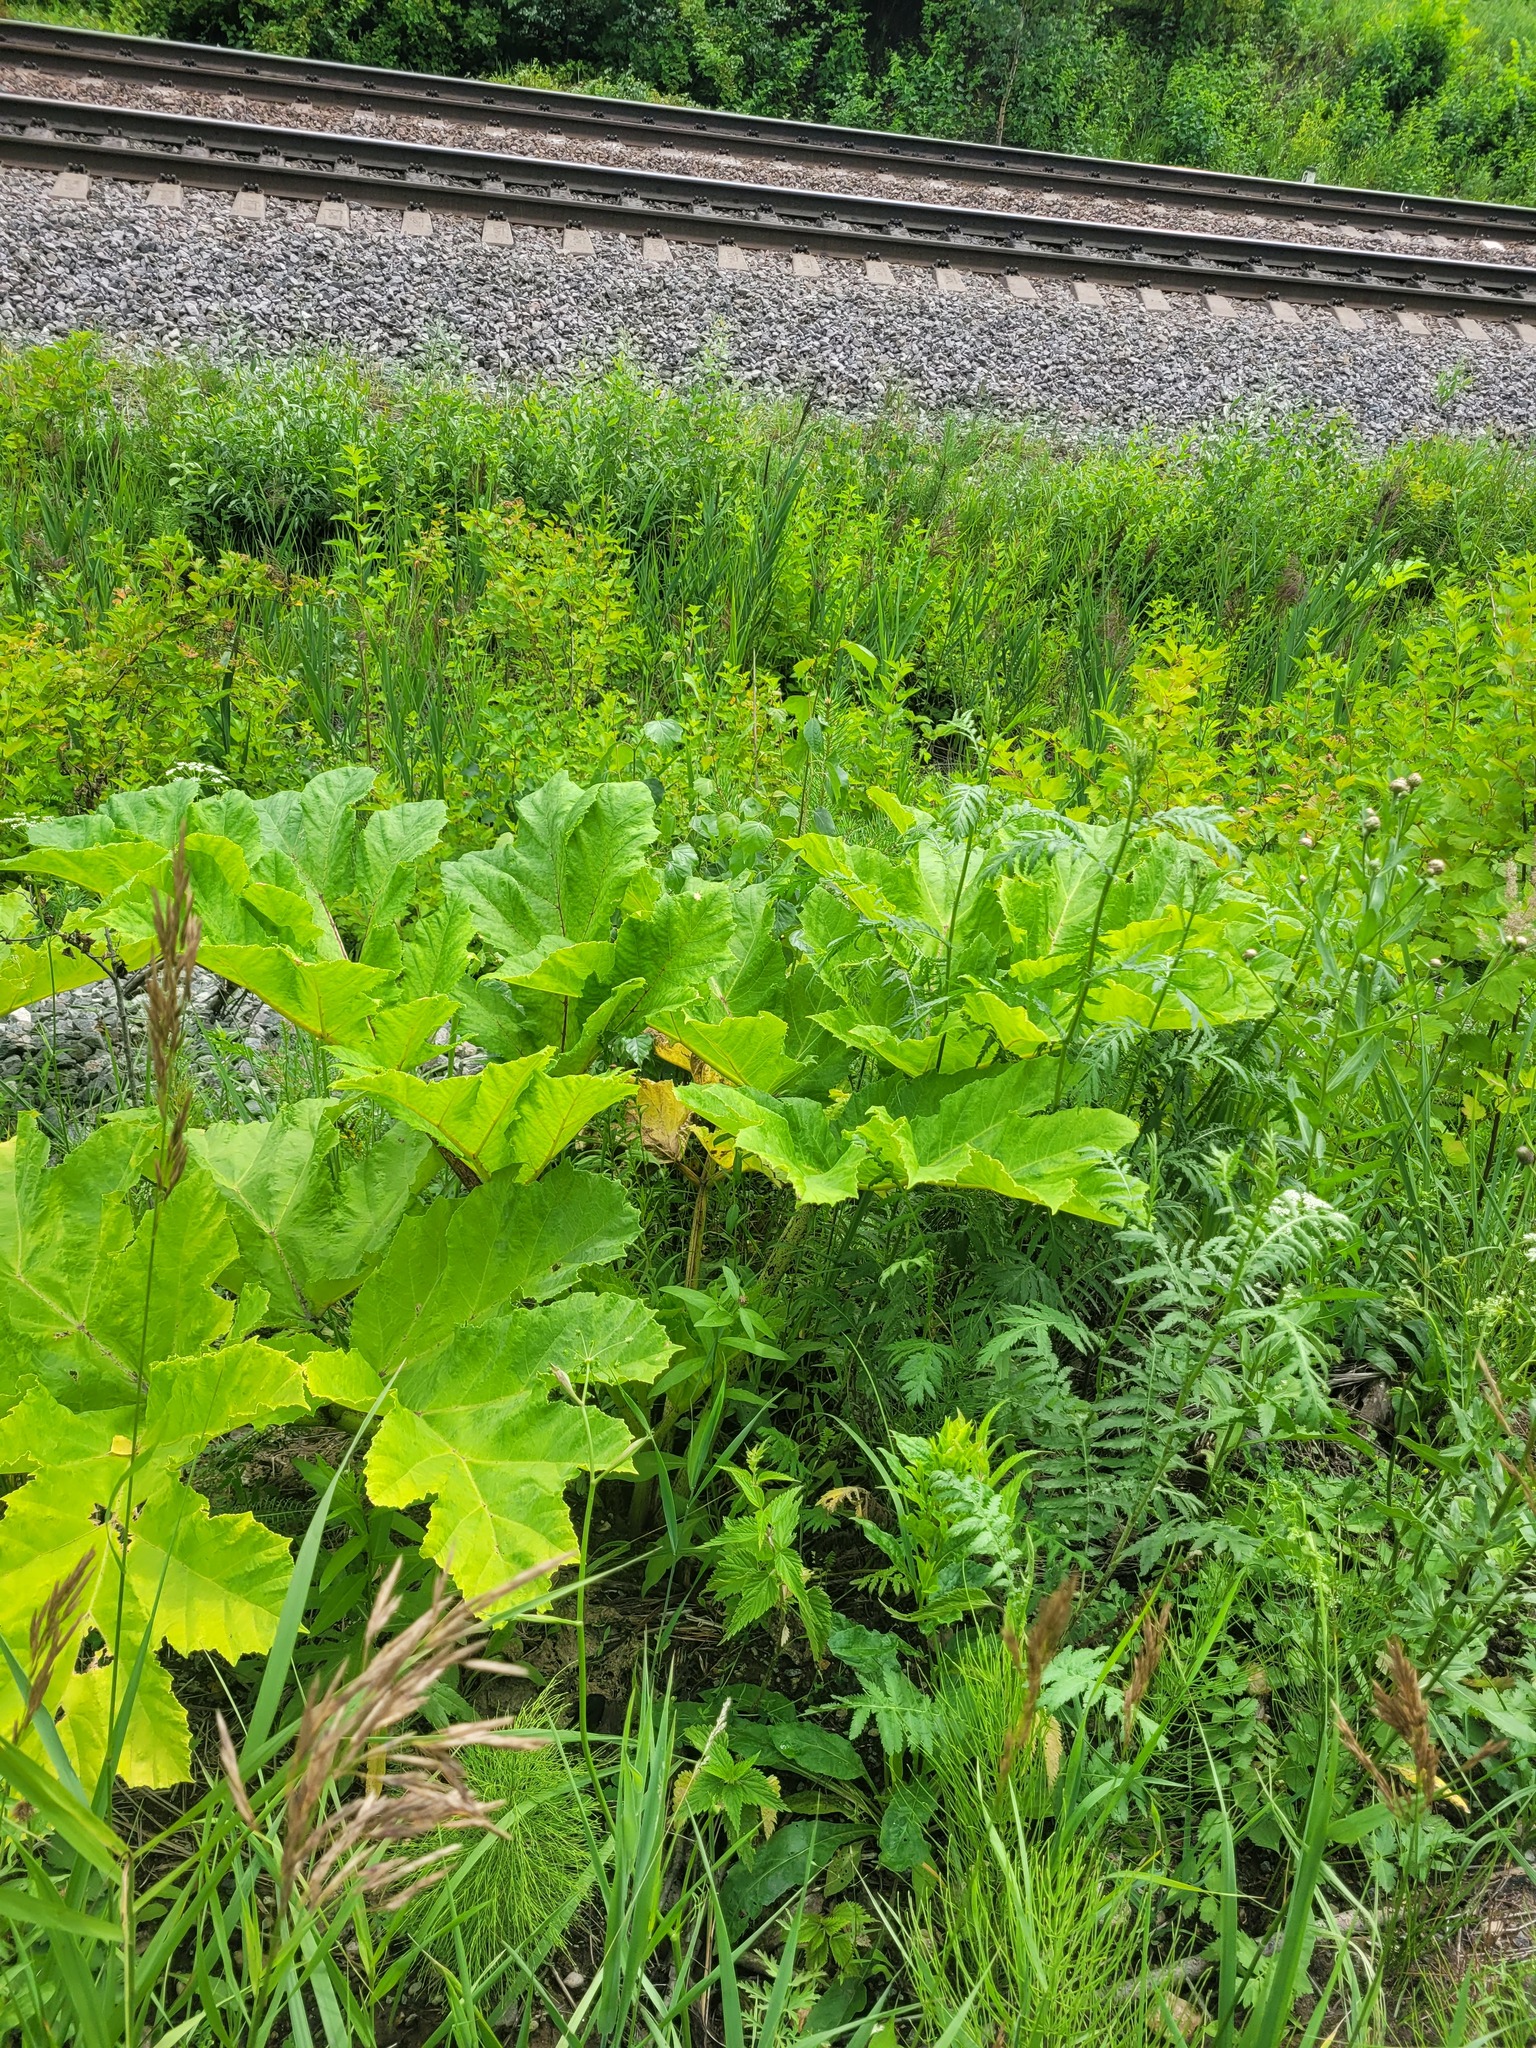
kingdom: Plantae
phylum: Tracheophyta
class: Magnoliopsida
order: Apiales
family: Apiaceae
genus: Heracleum
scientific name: Heracleum sosnowskyi
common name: Sosnowsky's hogweed
